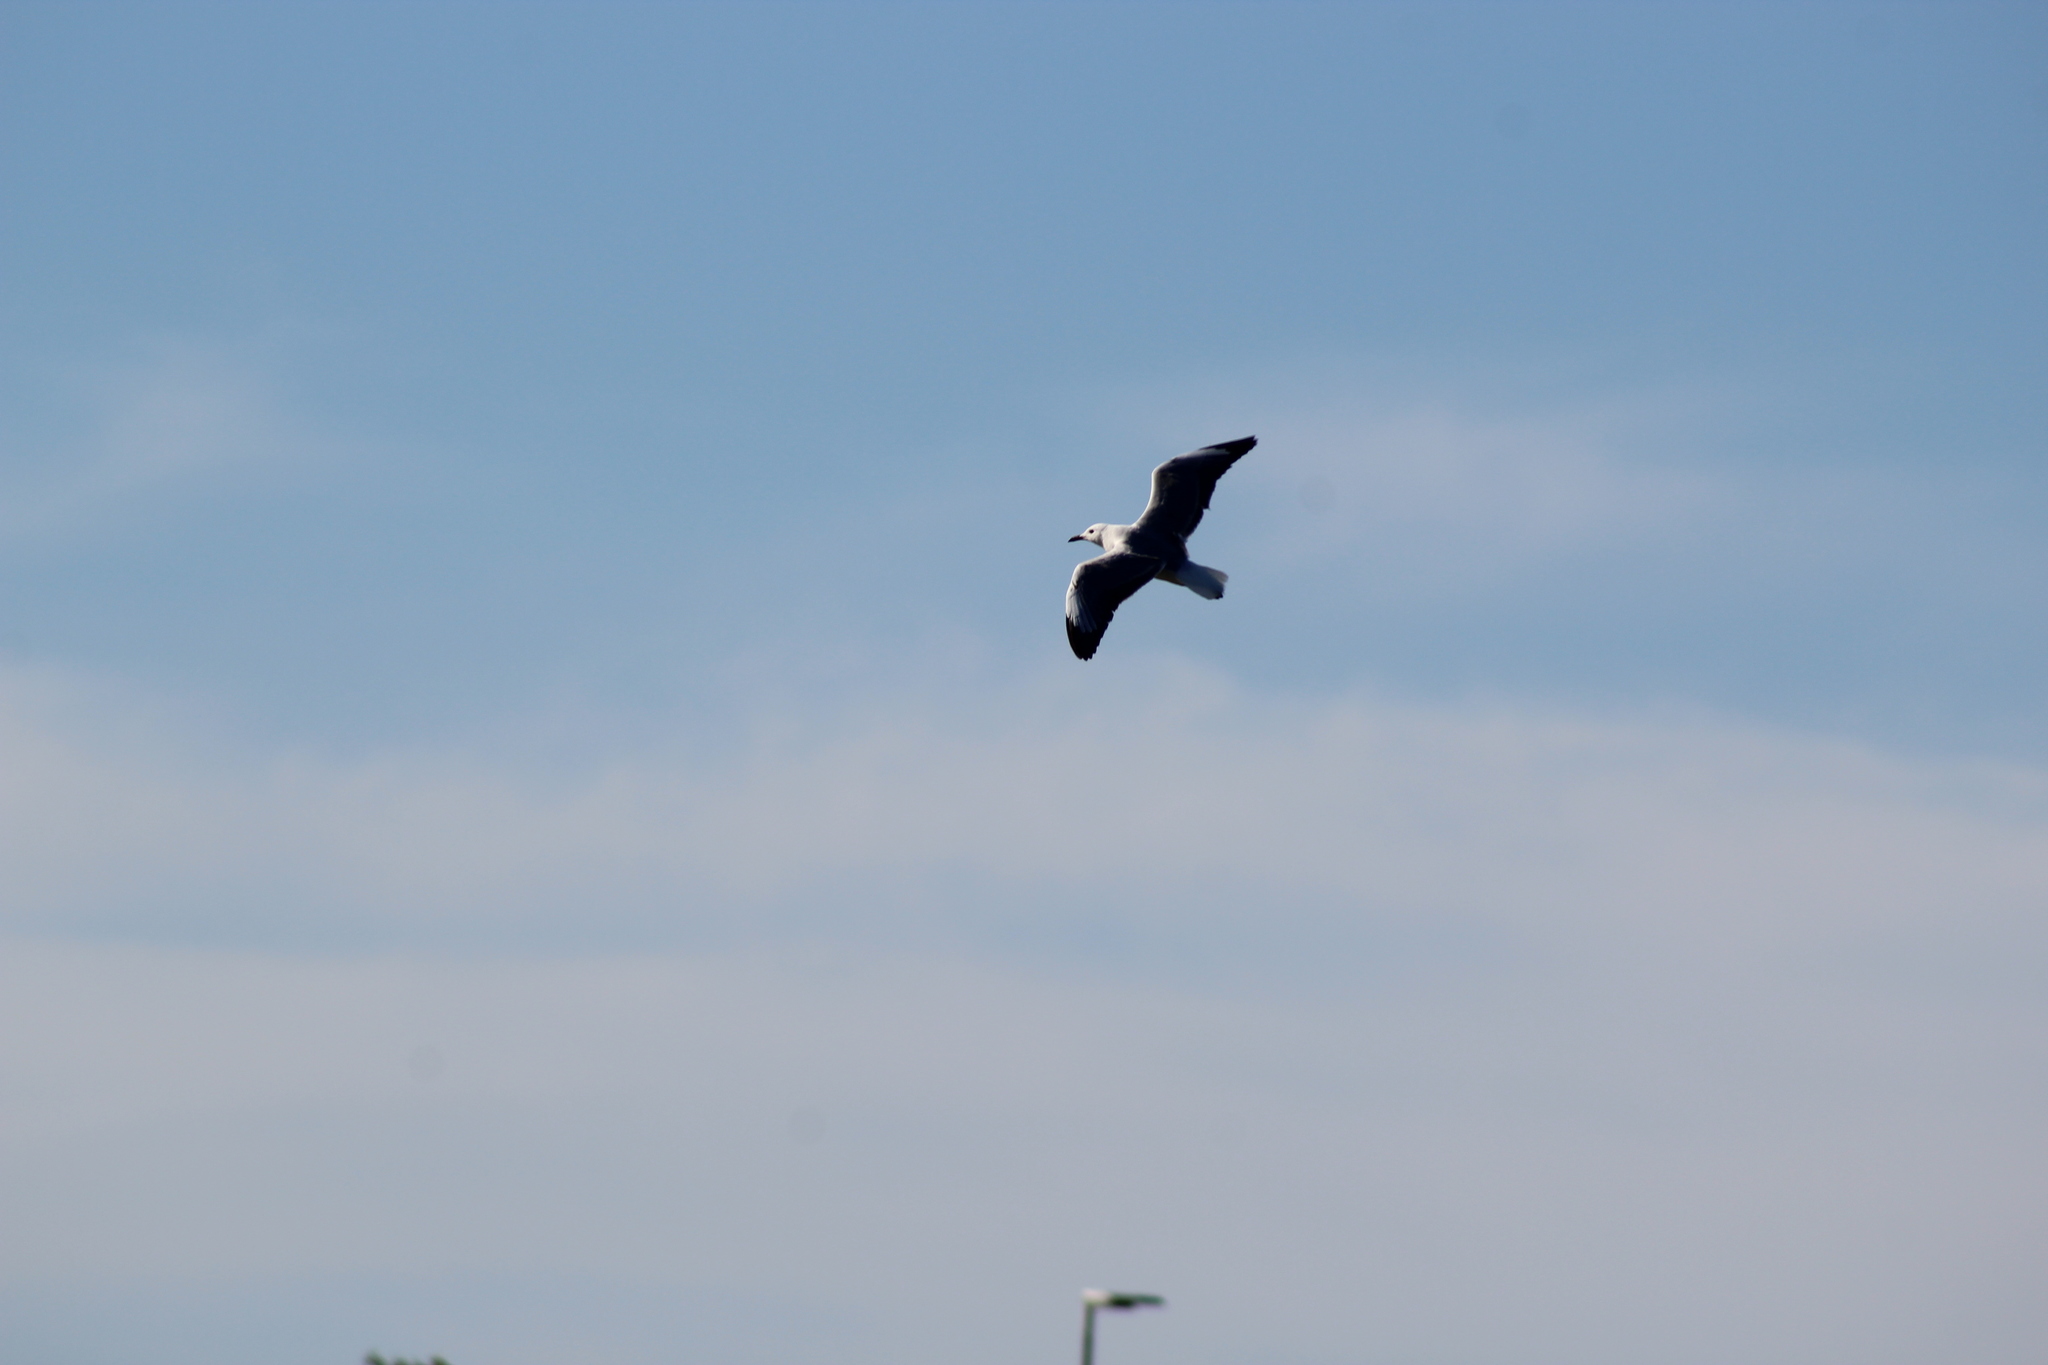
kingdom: Animalia
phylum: Chordata
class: Aves
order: Charadriiformes
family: Laridae
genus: Chroicocephalus
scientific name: Chroicocephalus hartlaubii
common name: Hartlaub's gull
